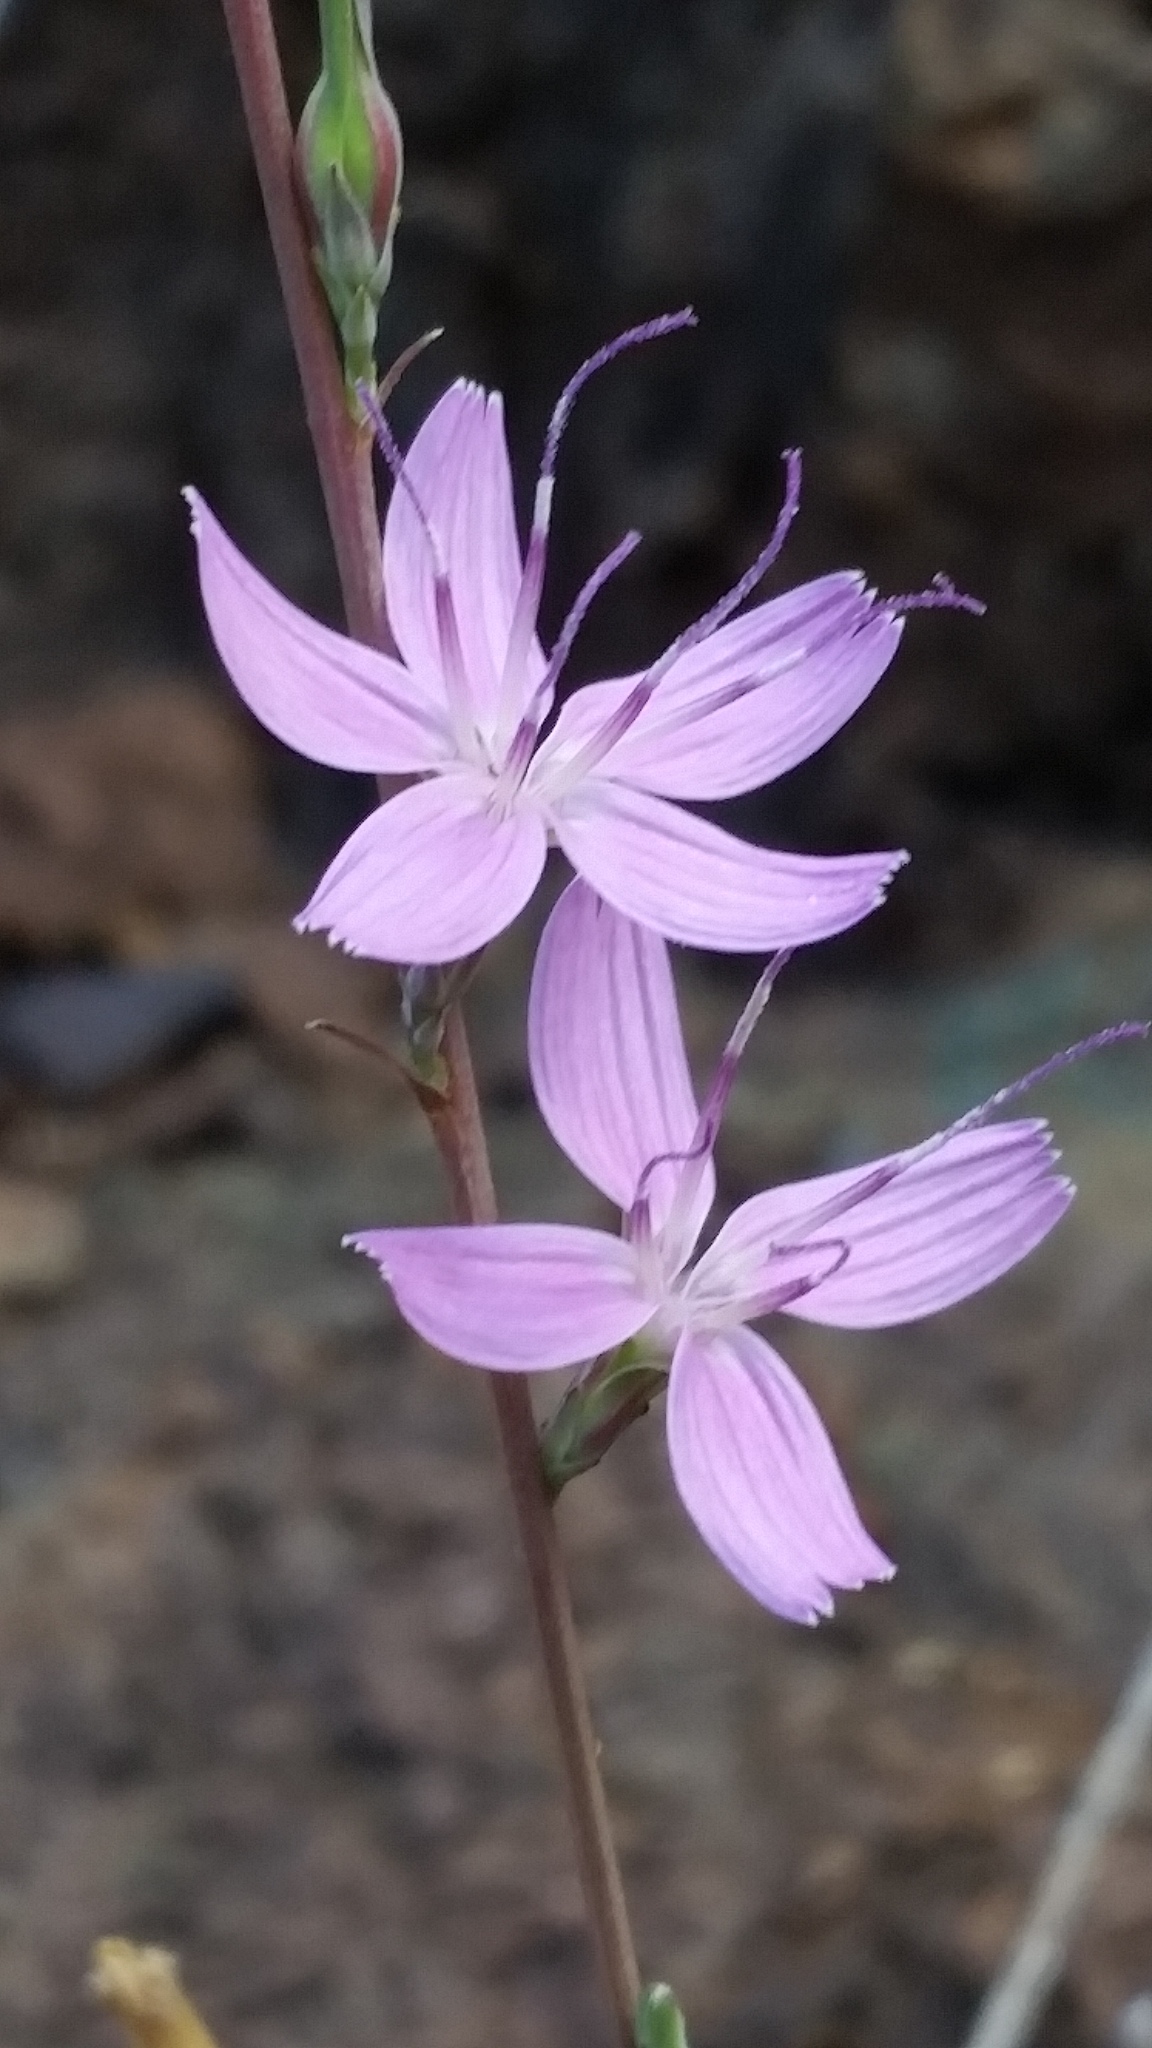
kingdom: Plantae
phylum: Tracheophyta
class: Magnoliopsida
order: Asterales
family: Asteraceae
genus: Stephanomeria
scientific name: Stephanomeria virgata
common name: Virgate wirelettuce
